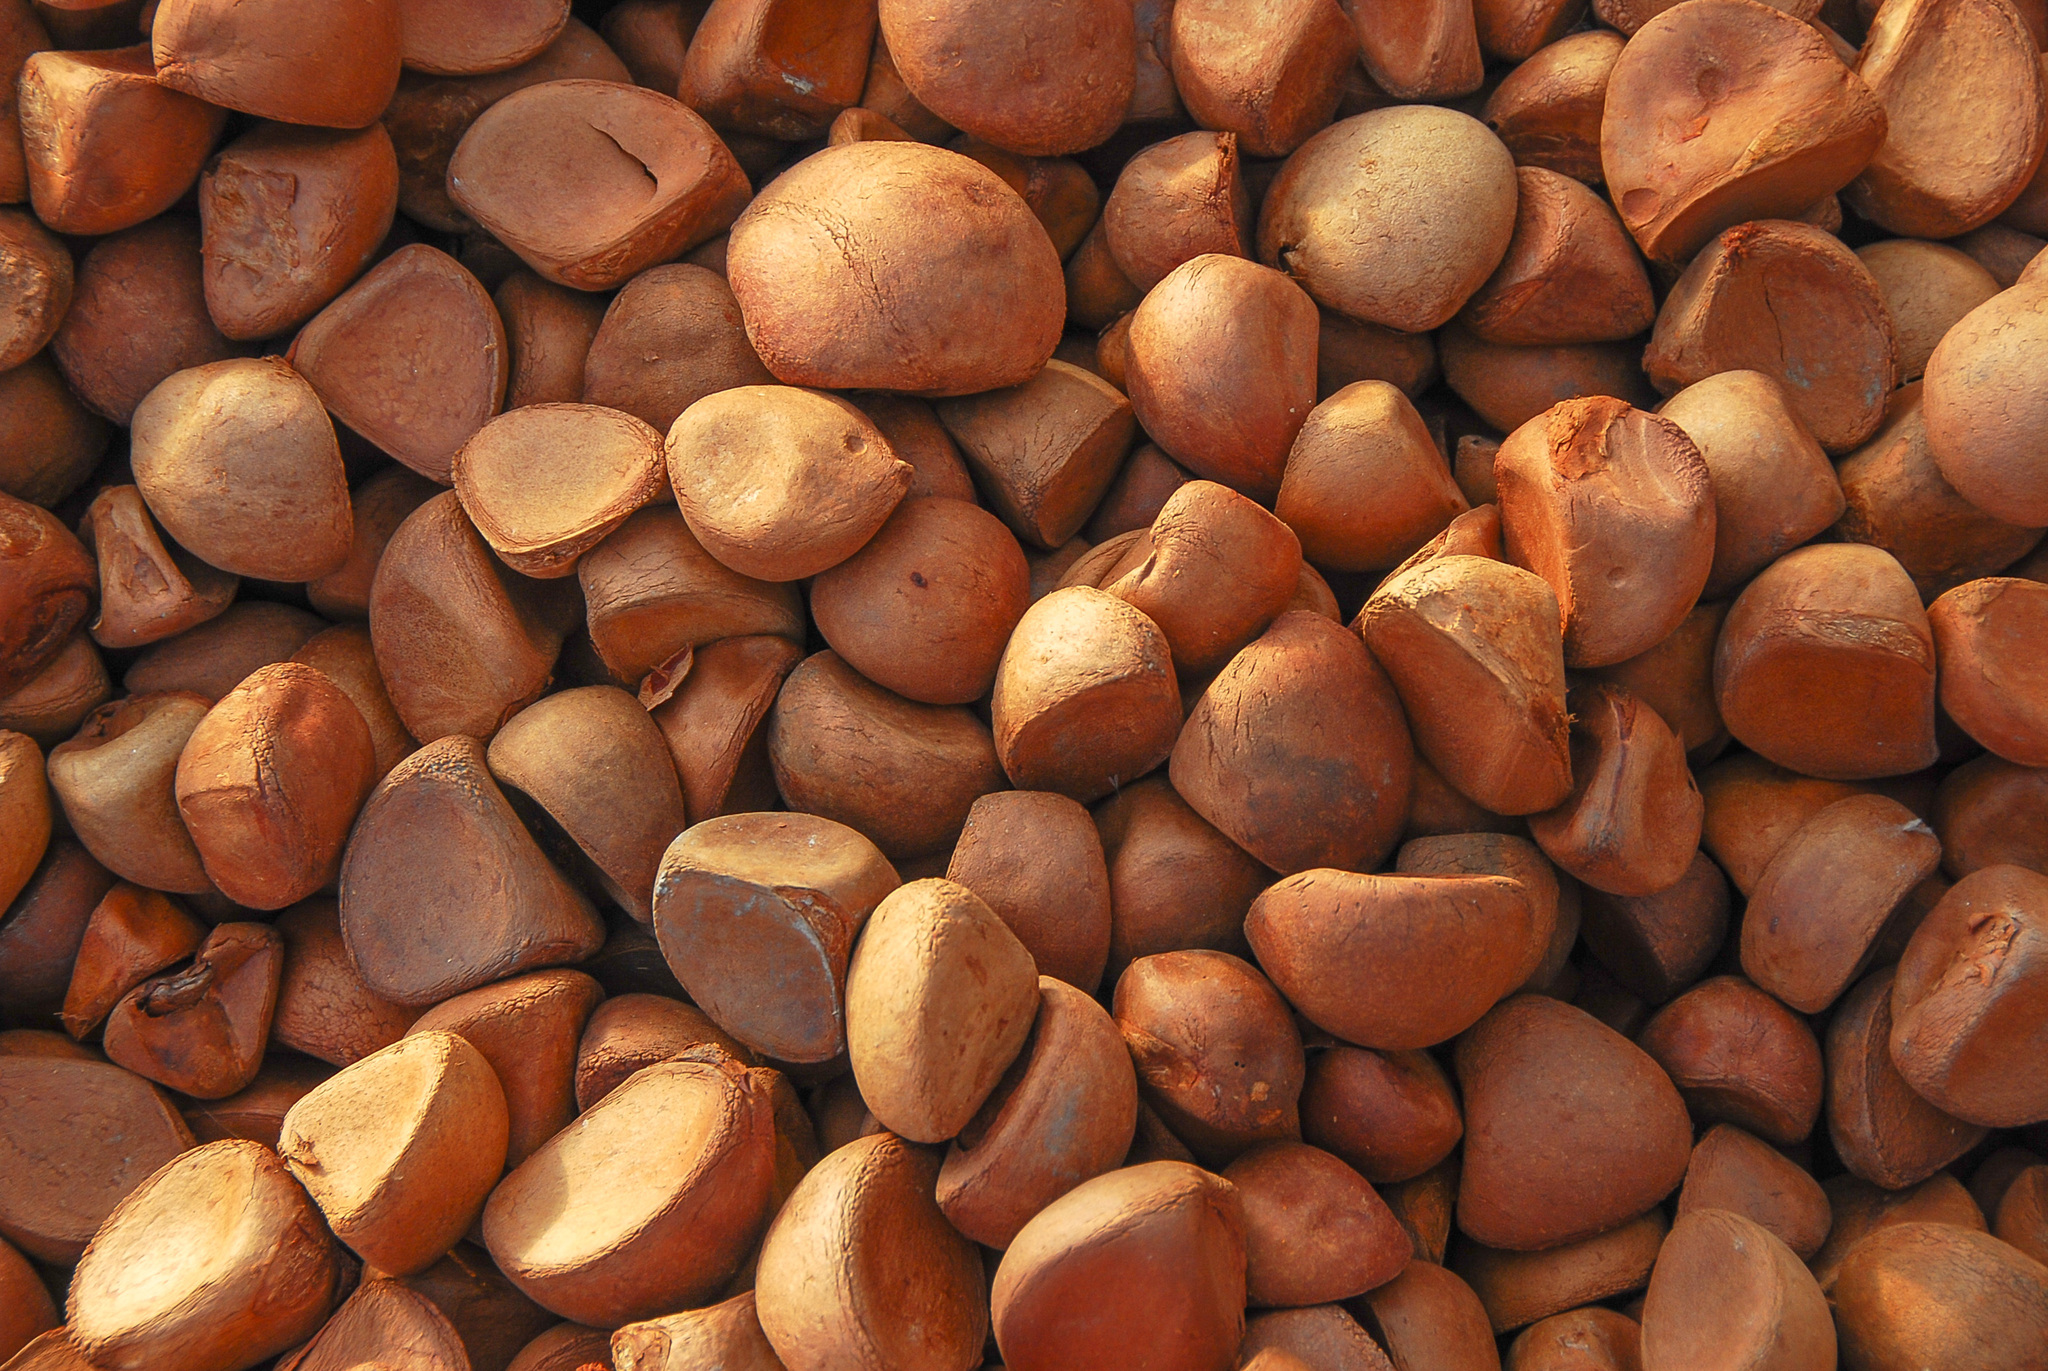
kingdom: Plantae
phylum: Tracheophyta
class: Magnoliopsida
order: Sapindales
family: Meliaceae
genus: Carapa
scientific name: Carapa guianensis
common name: Crabwood
